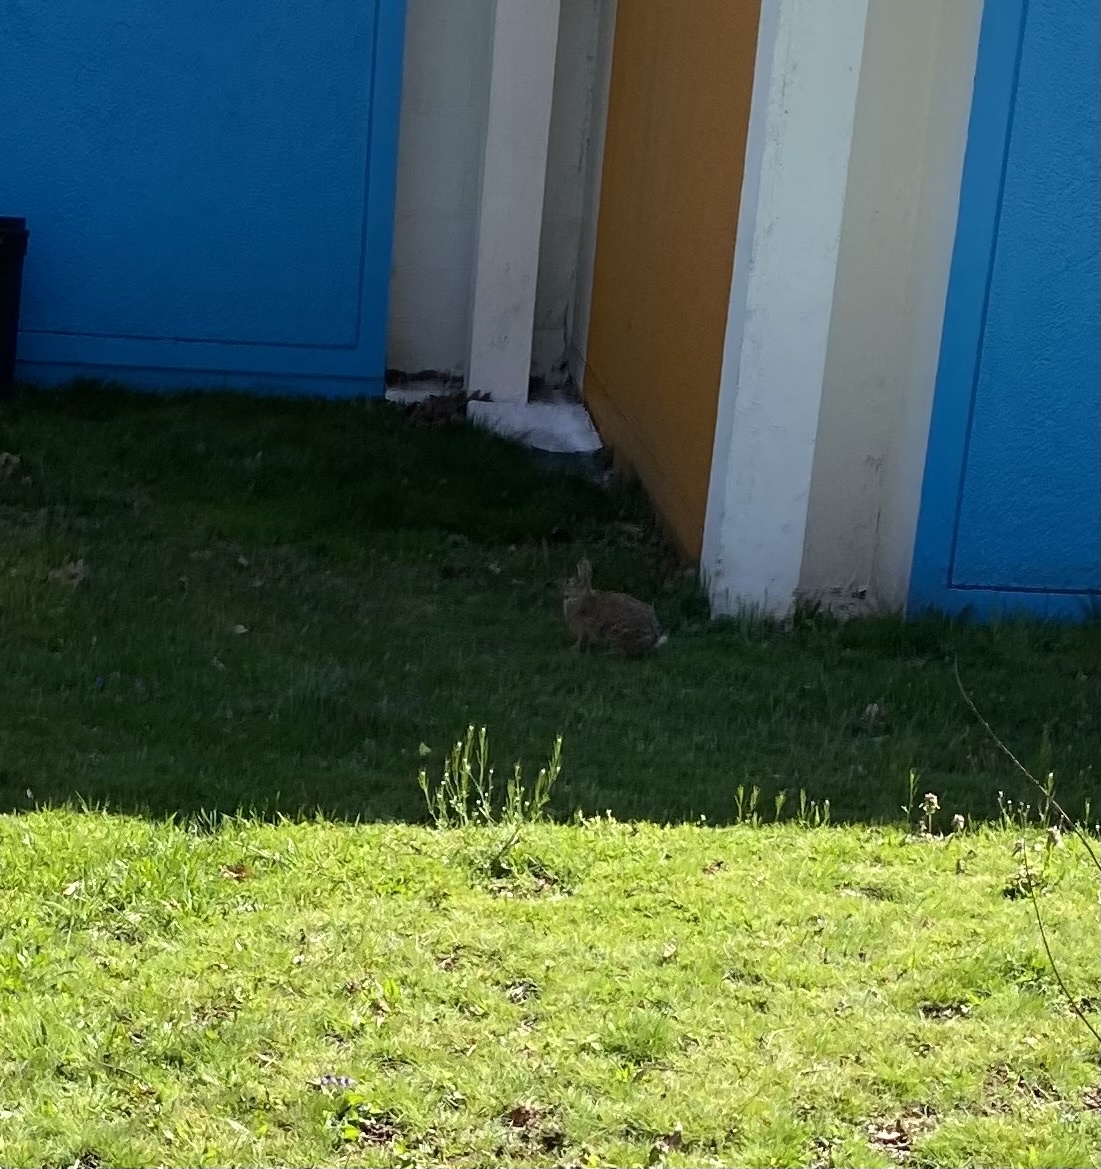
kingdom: Animalia
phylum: Chordata
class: Mammalia
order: Lagomorpha
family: Leporidae
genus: Sylvilagus
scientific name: Sylvilagus floridanus
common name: Eastern cottontail
